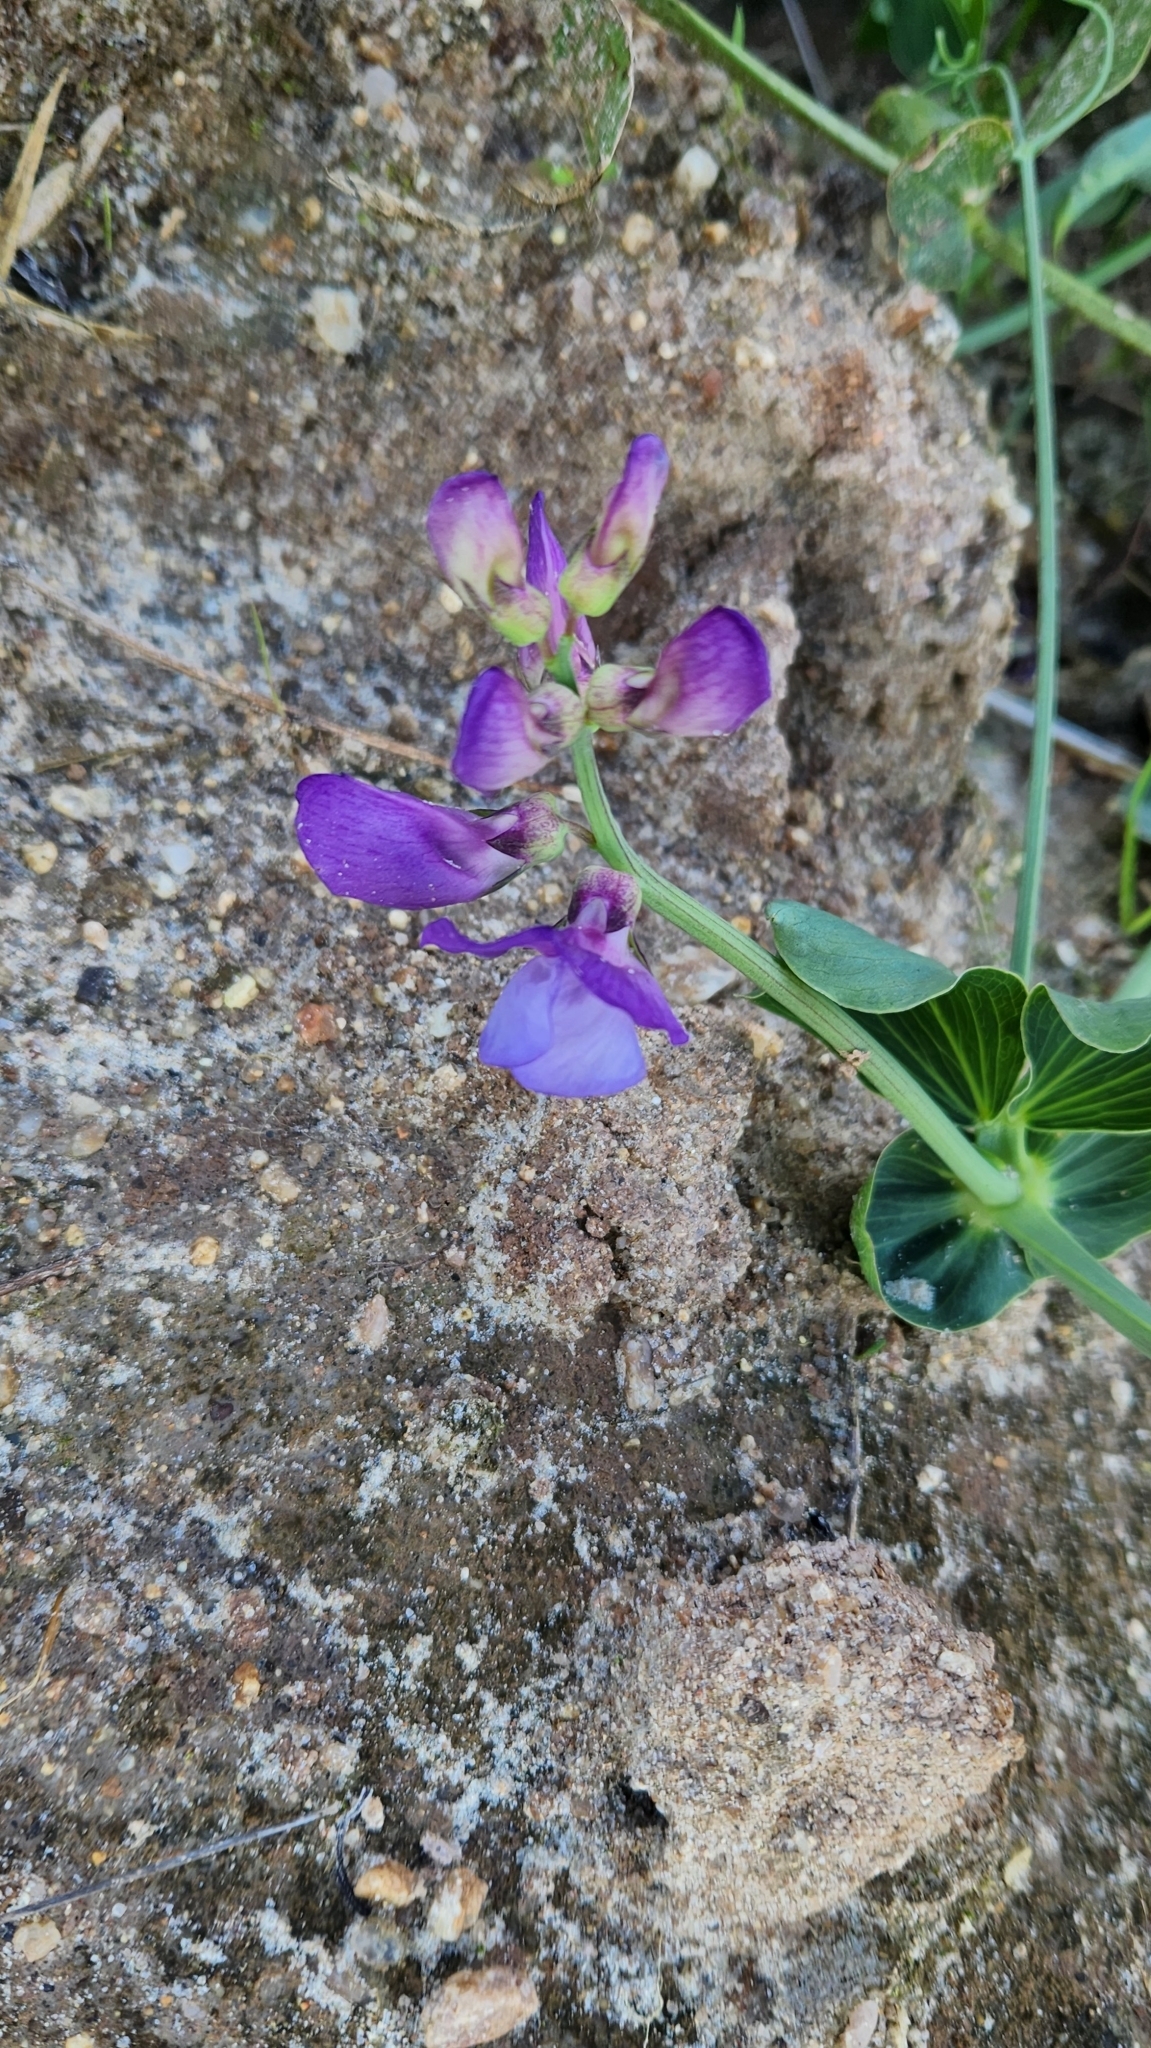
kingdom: Plantae
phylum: Tracheophyta
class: Magnoliopsida
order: Fabales
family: Fabaceae
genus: Lathyrus
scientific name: Lathyrus nervosus
